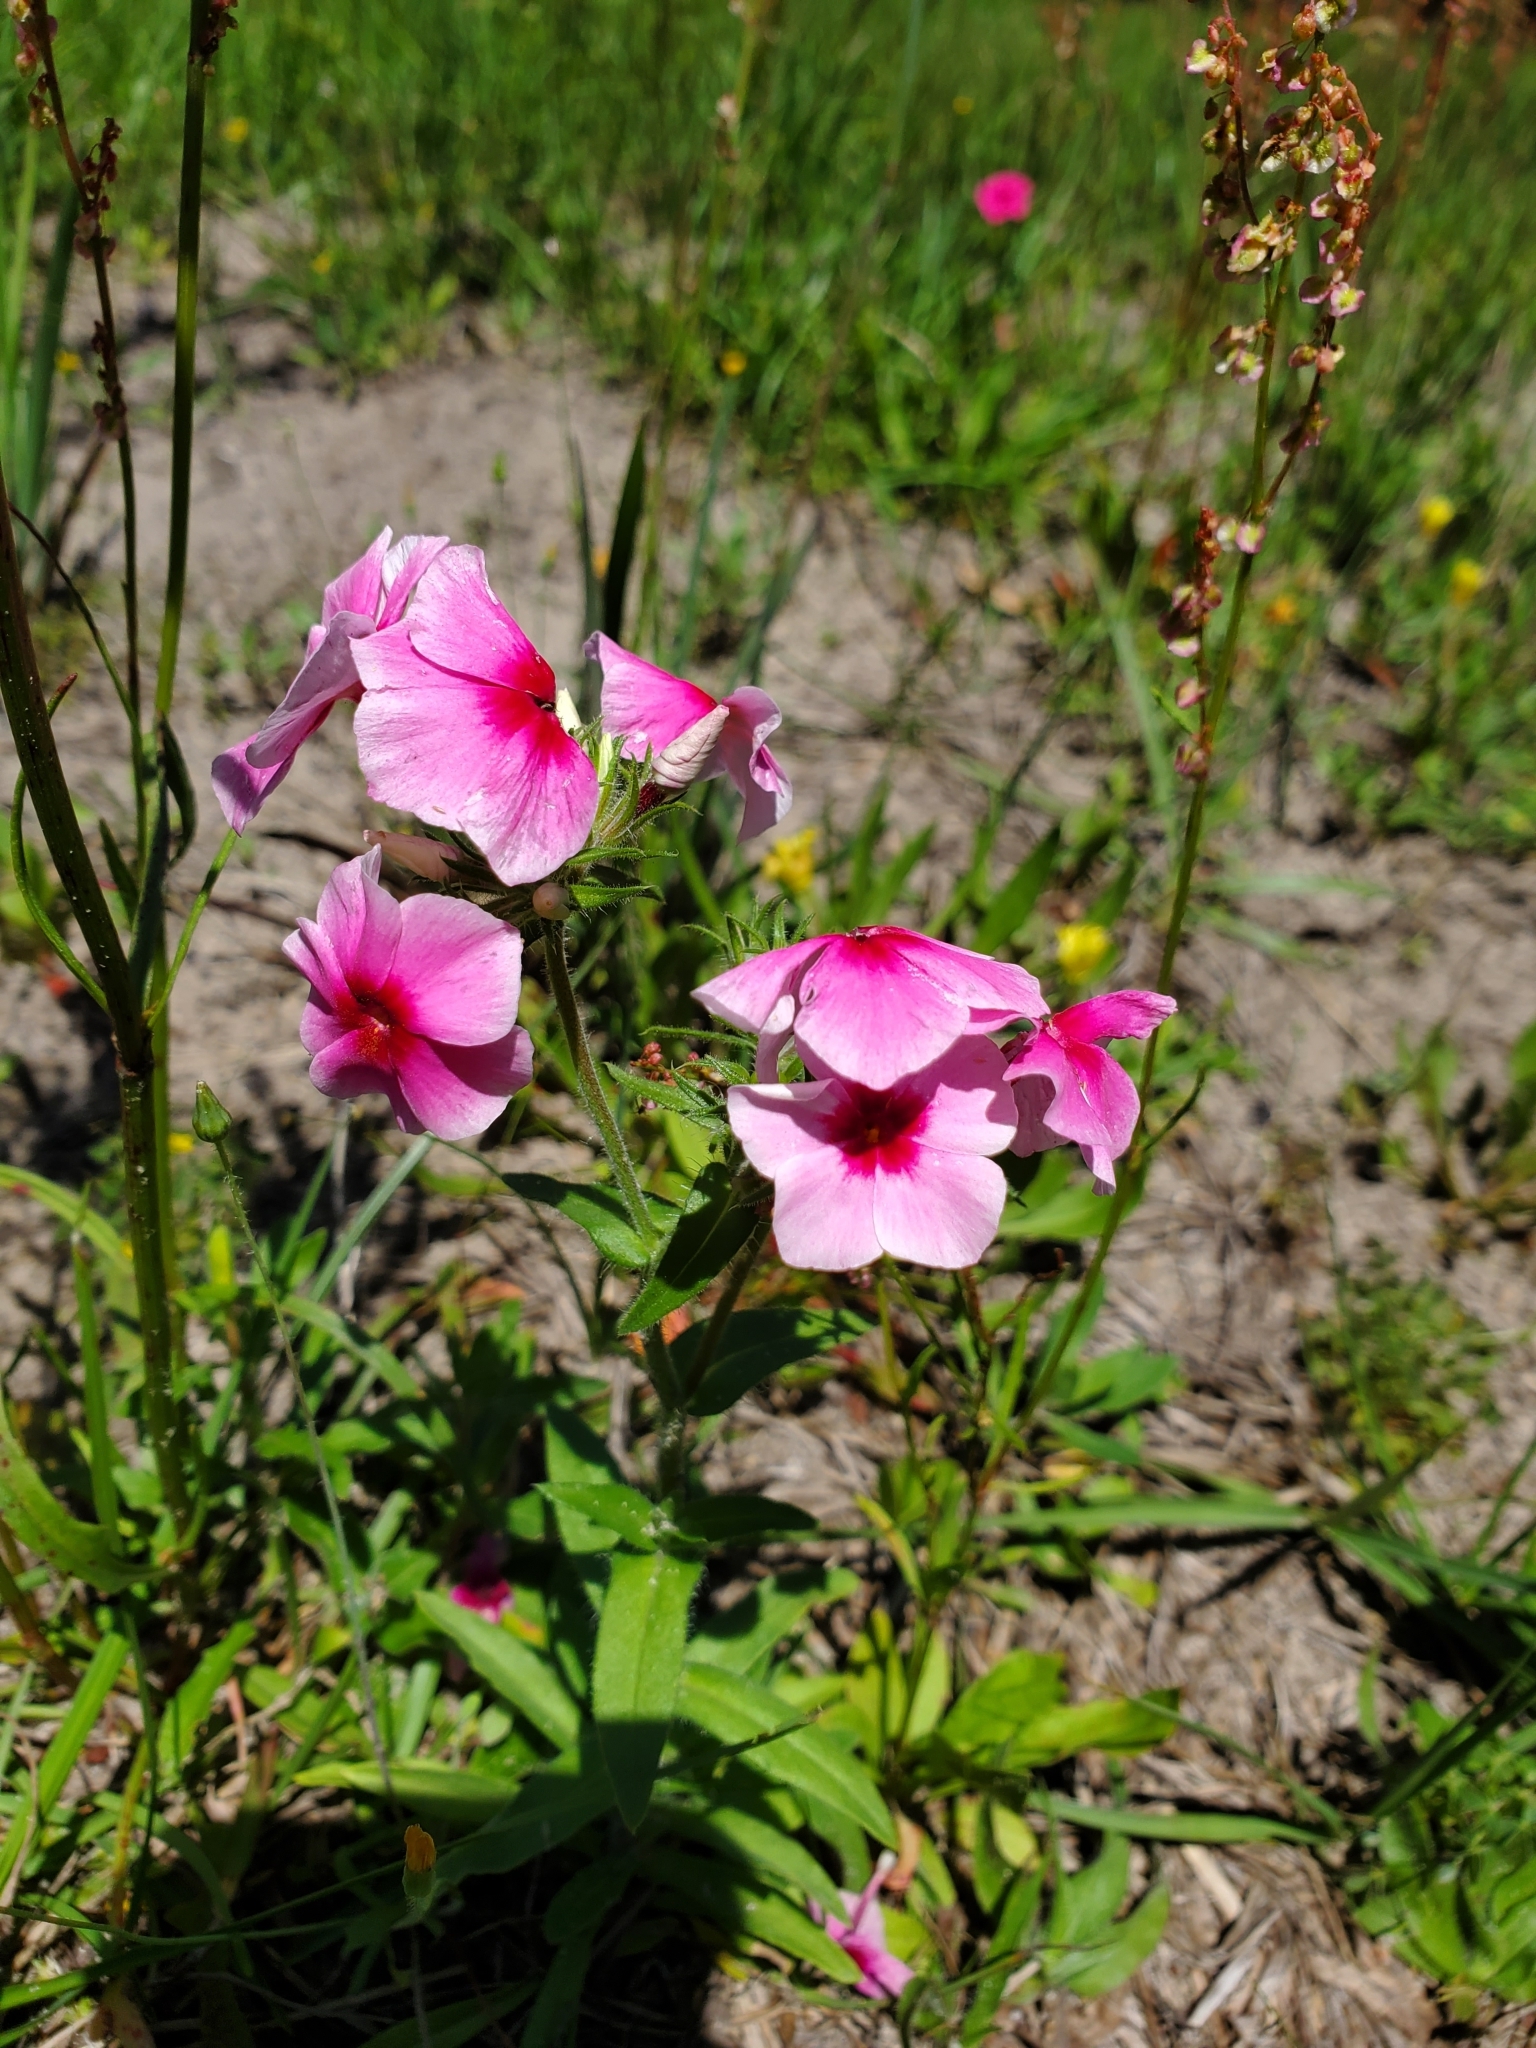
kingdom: Plantae
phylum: Tracheophyta
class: Magnoliopsida
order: Ericales
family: Polemoniaceae
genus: Phlox
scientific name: Phlox drummondii
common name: Drummond's phlox
